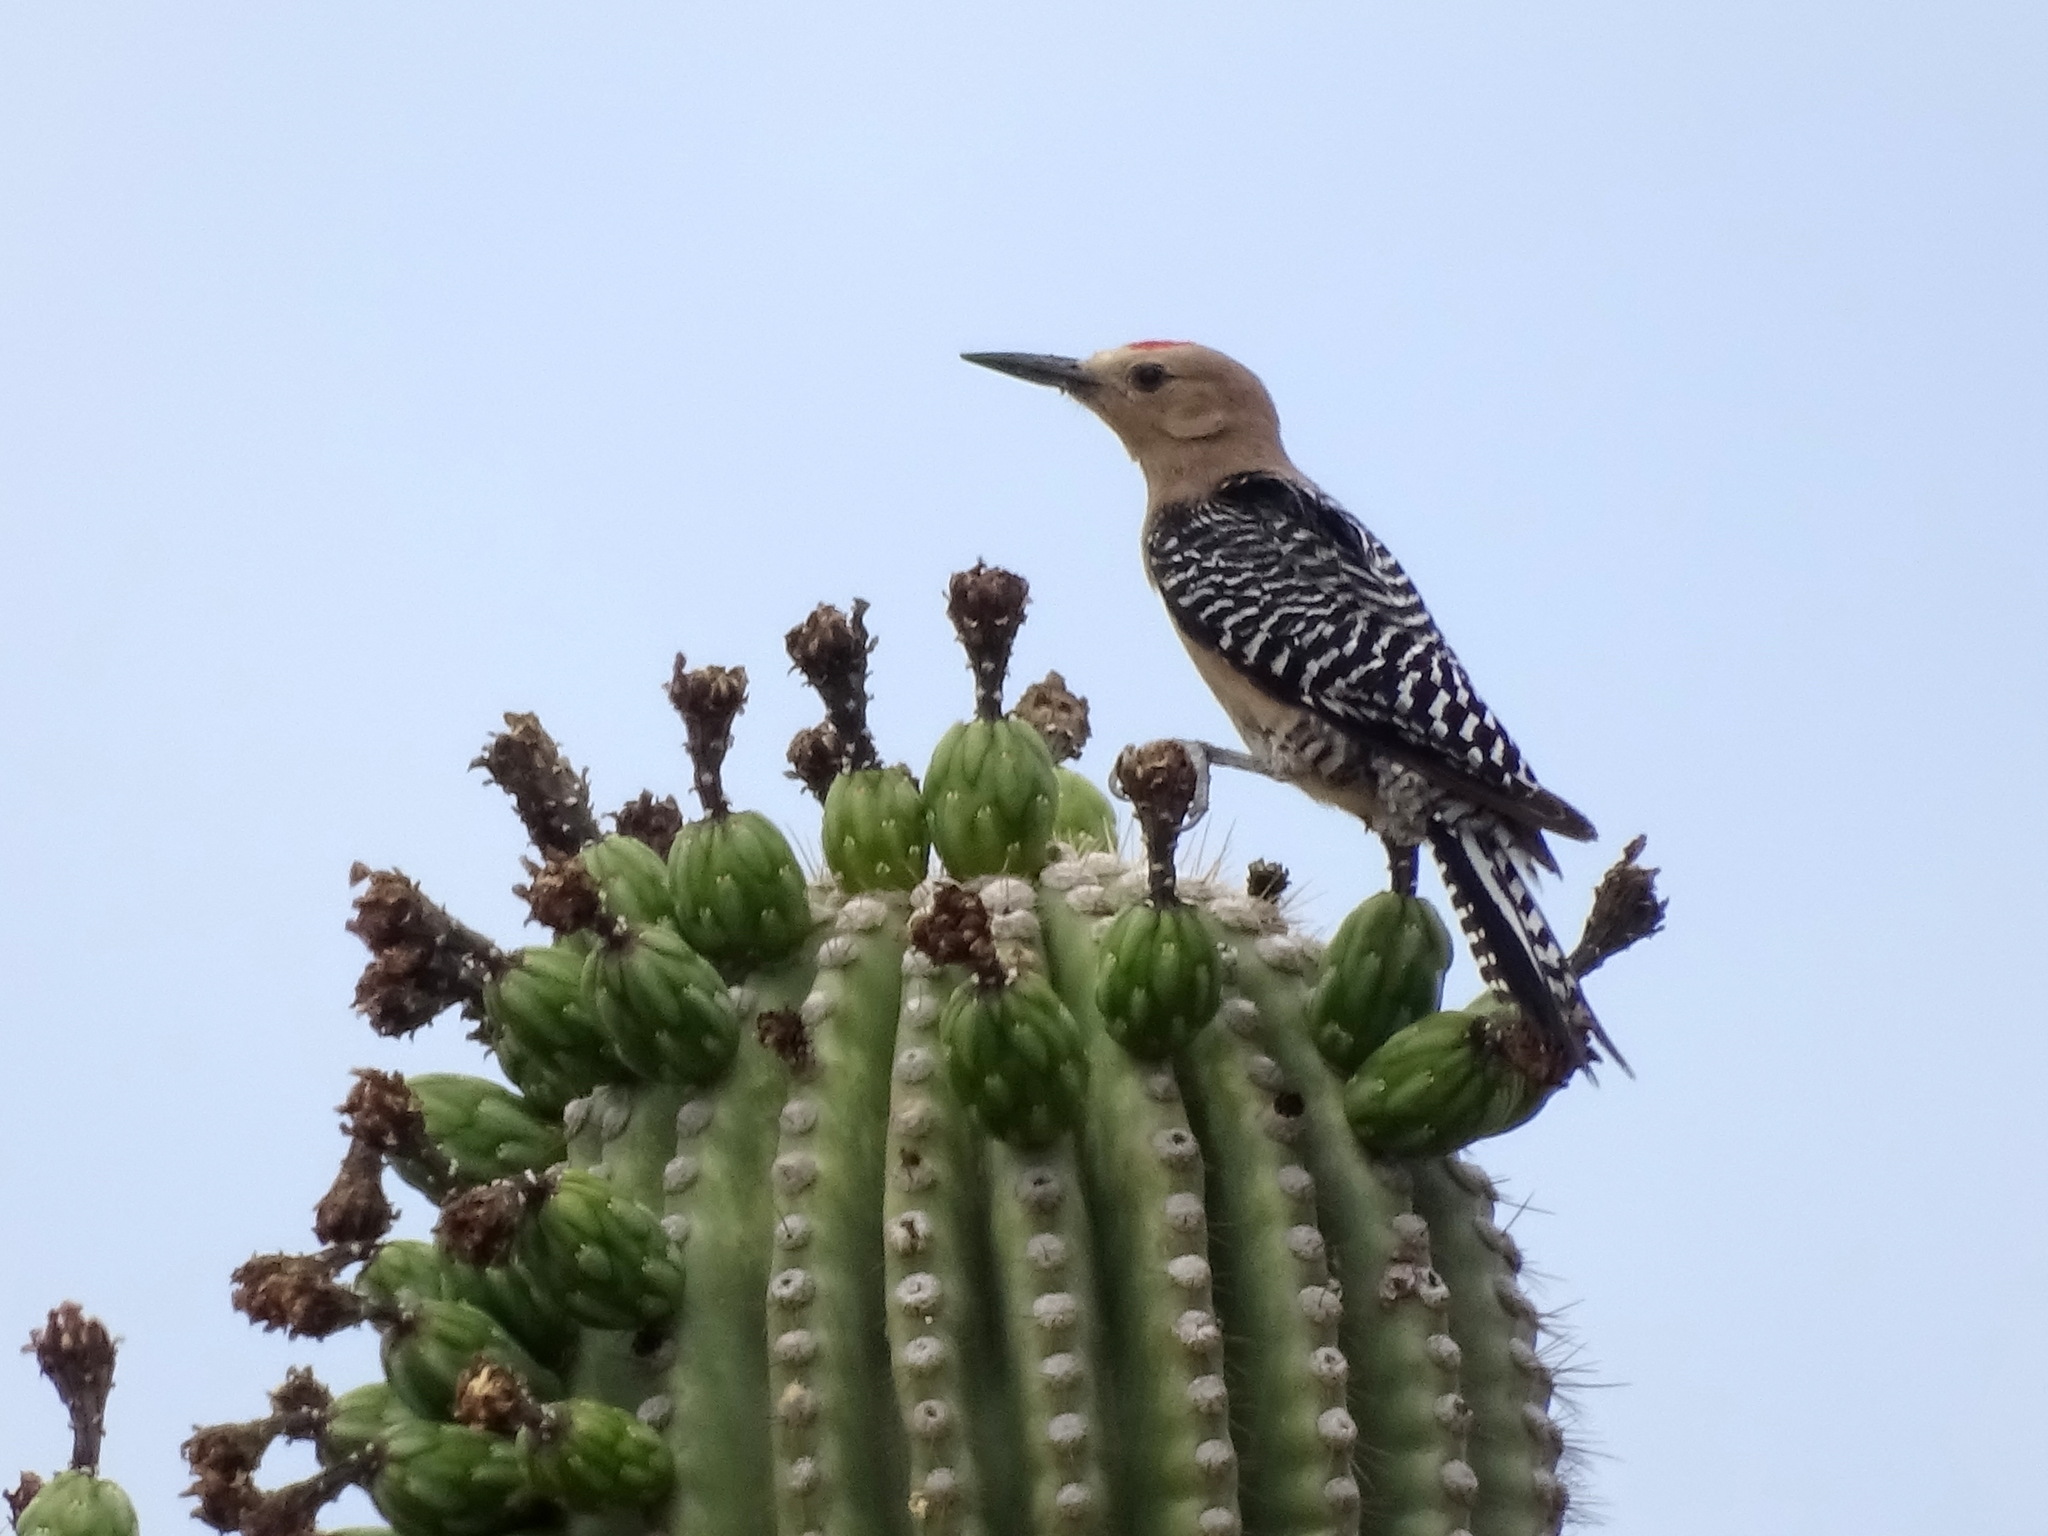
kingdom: Animalia
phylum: Chordata
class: Aves
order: Piciformes
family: Picidae
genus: Melanerpes
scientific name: Melanerpes uropygialis
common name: Gila woodpecker
